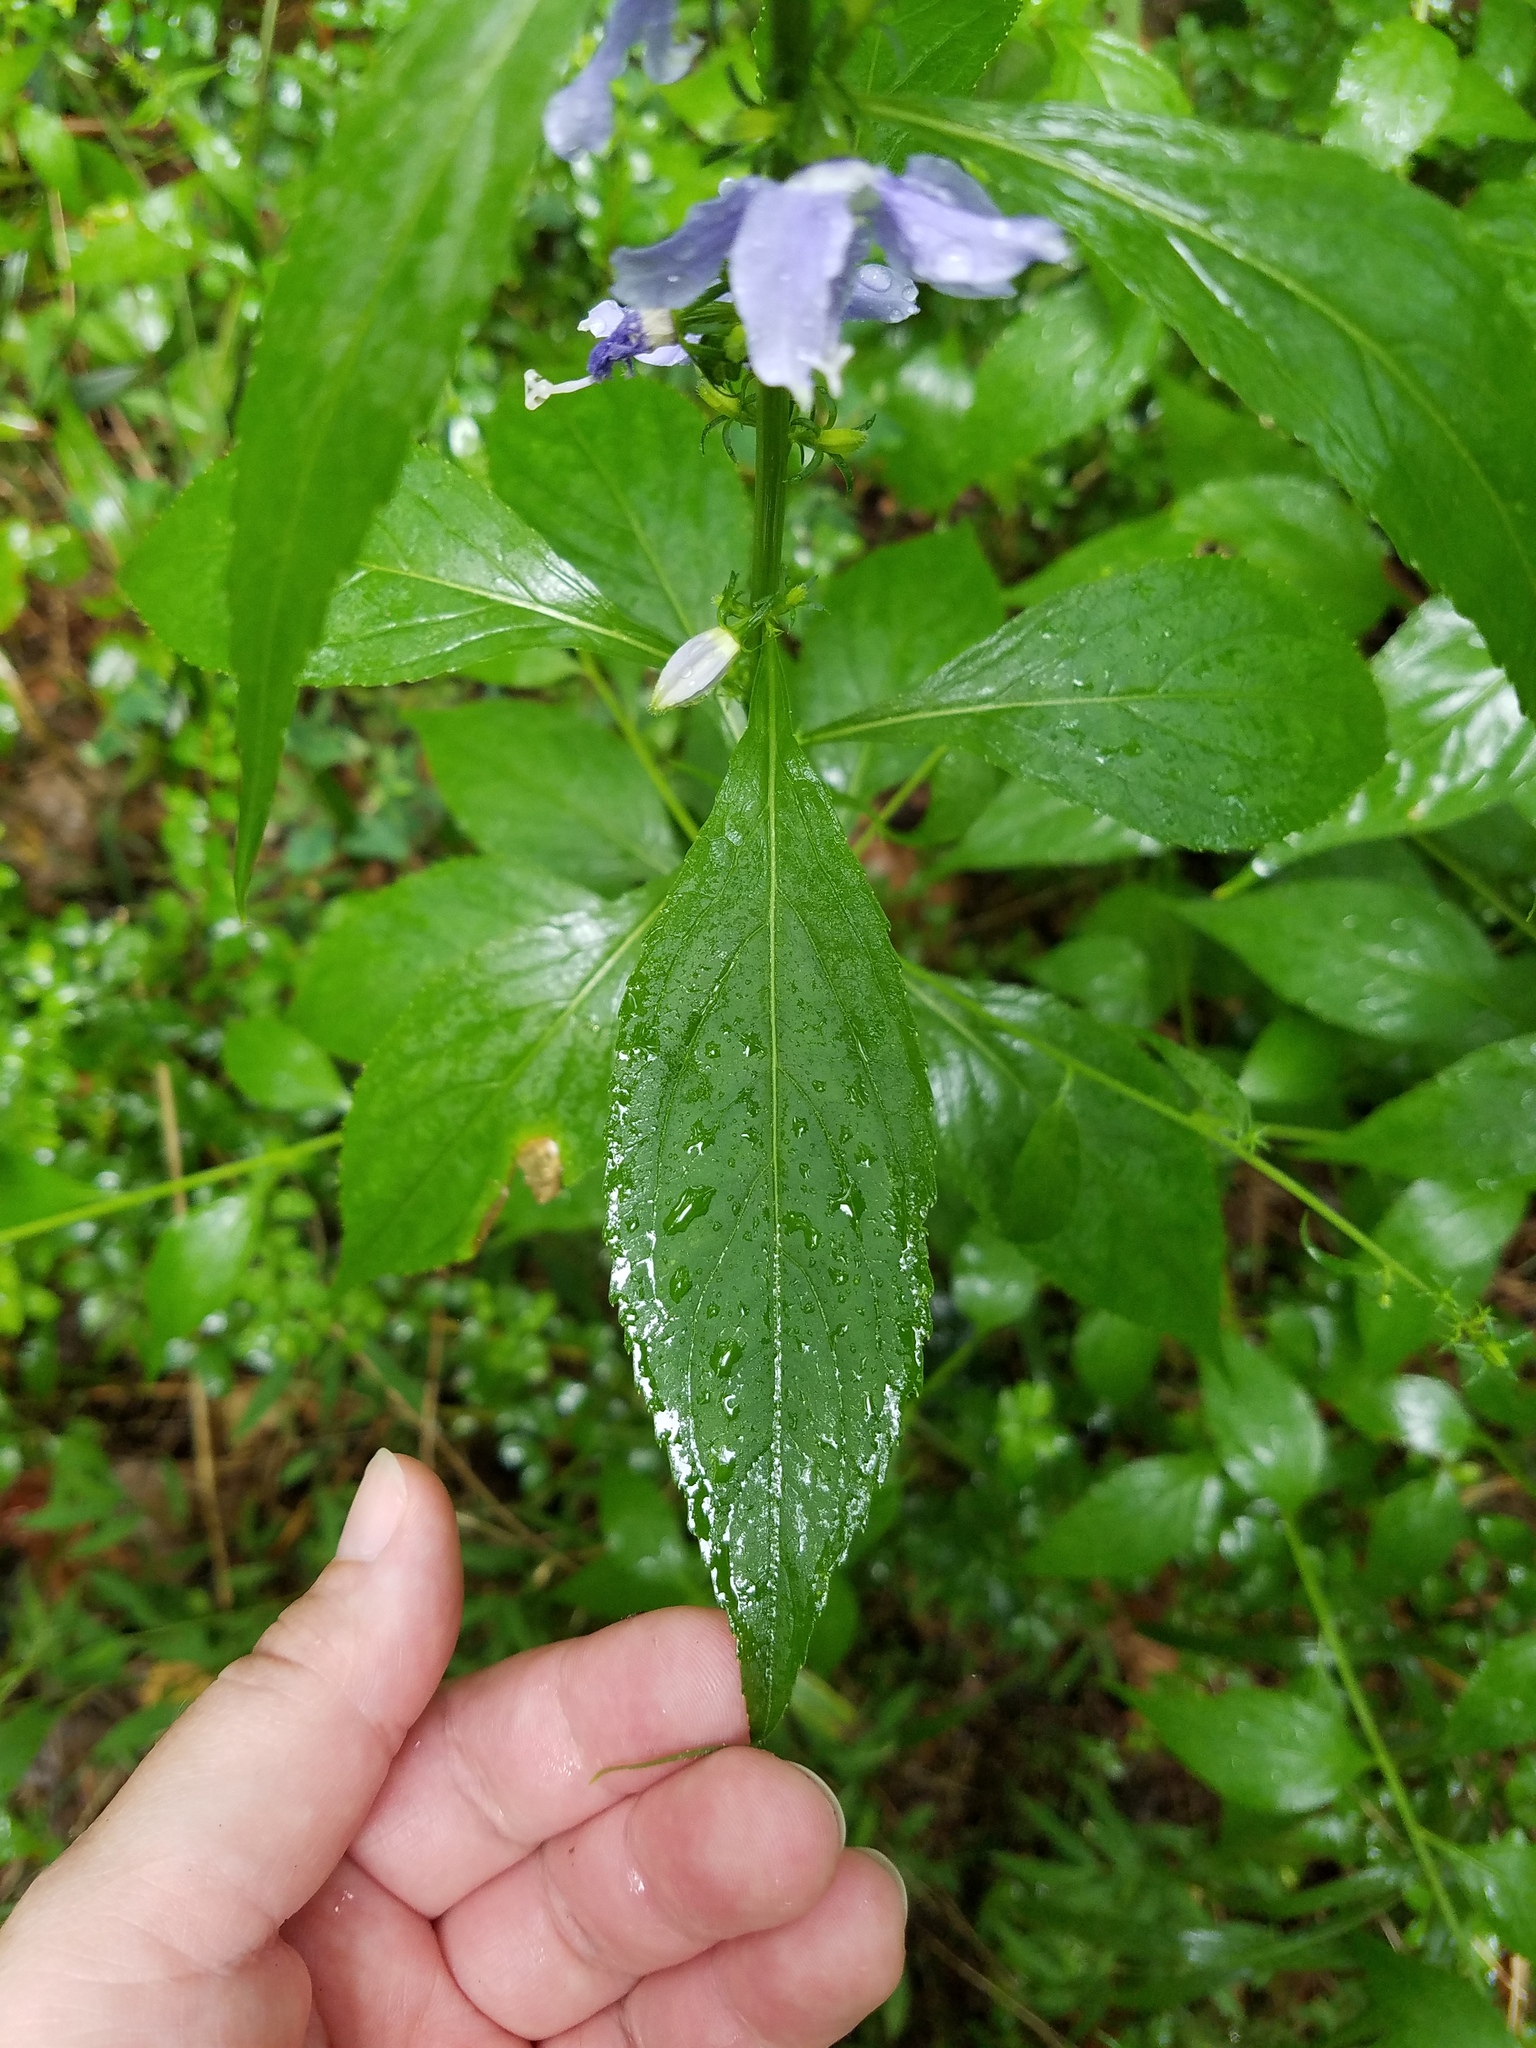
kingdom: Plantae
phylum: Tracheophyta
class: Magnoliopsida
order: Asterales
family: Campanulaceae
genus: Campanulastrum
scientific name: Campanulastrum americanum
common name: American bellflower
